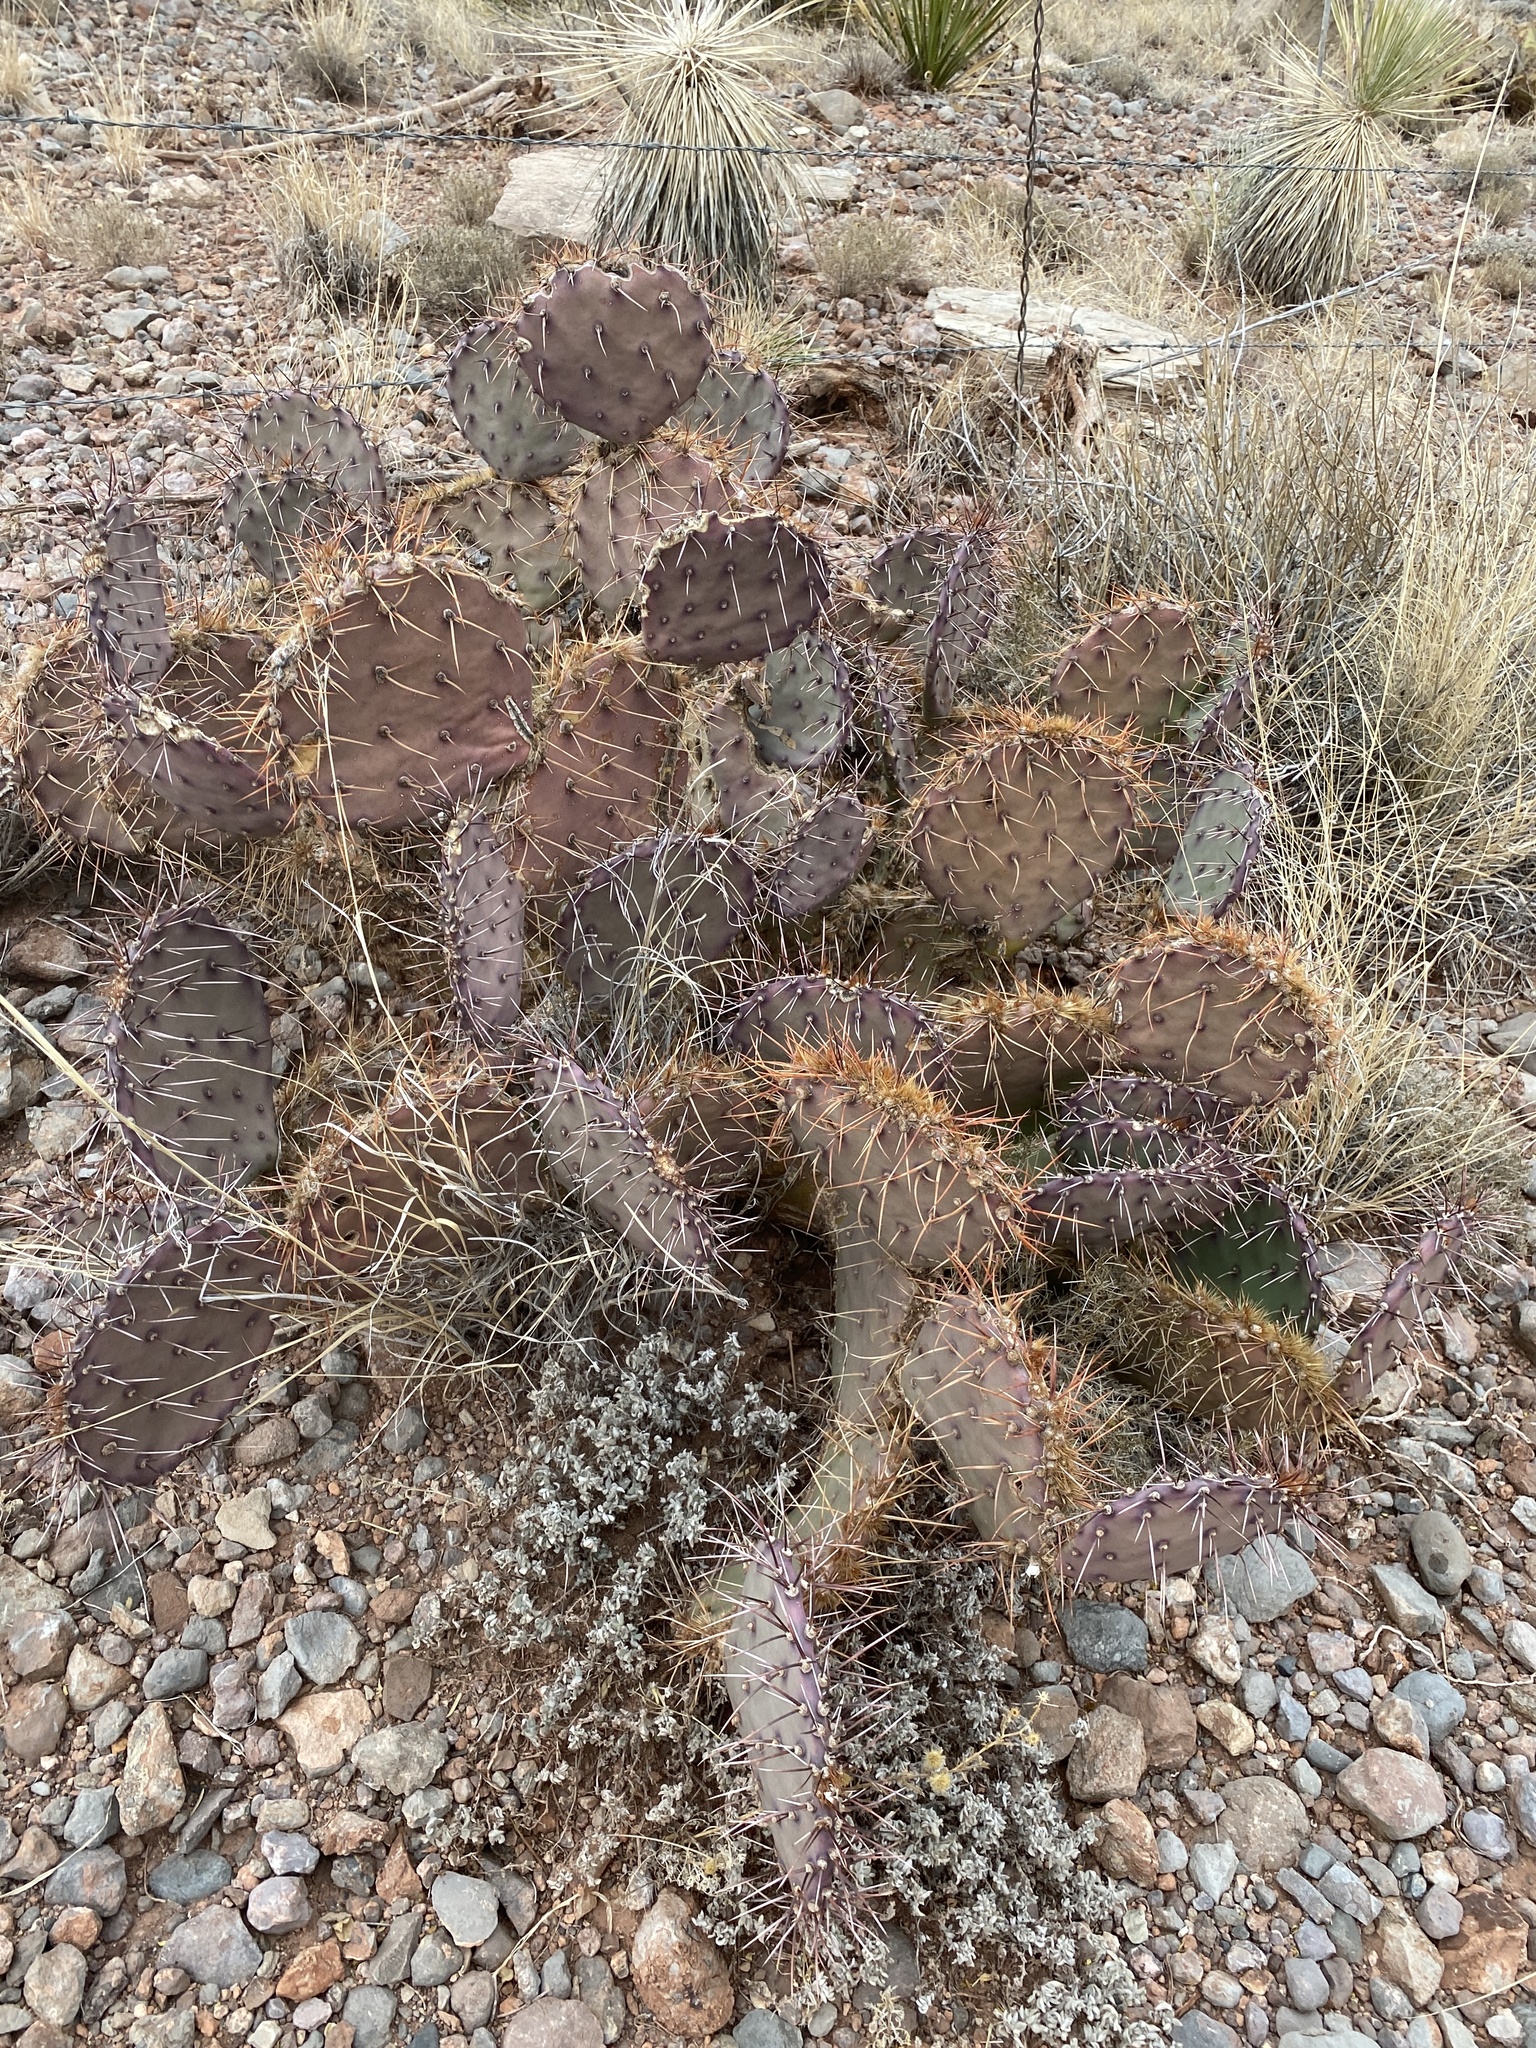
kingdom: Plantae
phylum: Tracheophyta
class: Magnoliopsida
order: Caryophyllales
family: Cactaceae
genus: Opuntia
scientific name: Opuntia macrocentra
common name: Purple prickly-pear
